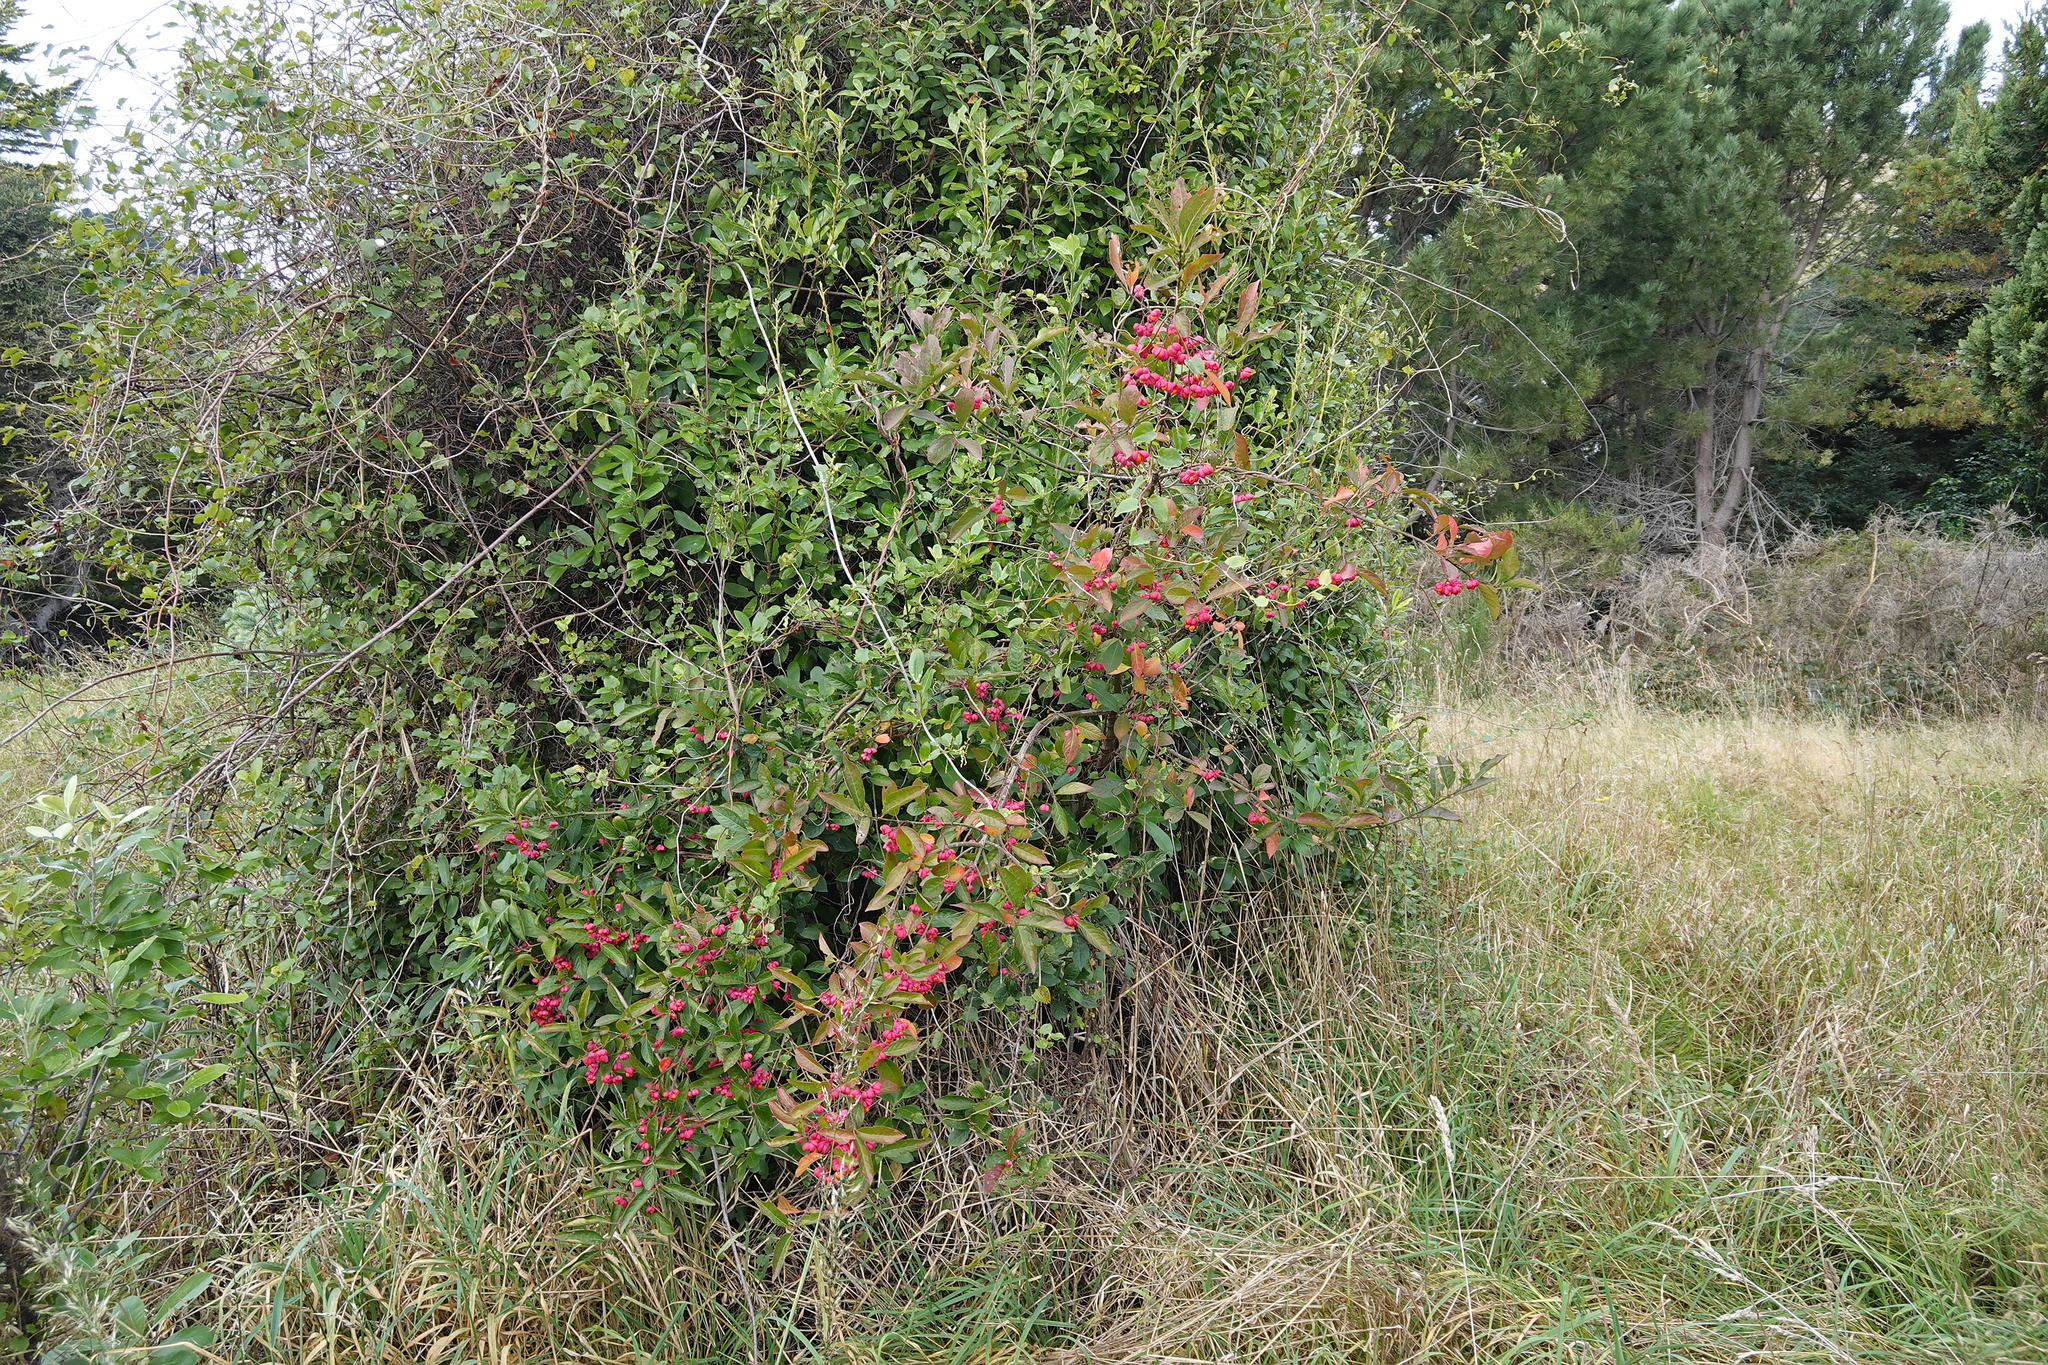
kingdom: Plantae
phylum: Tracheophyta
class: Magnoliopsida
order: Celastrales
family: Celastraceae
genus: Euonymus
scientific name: Euonymus europaeus
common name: Spindle
